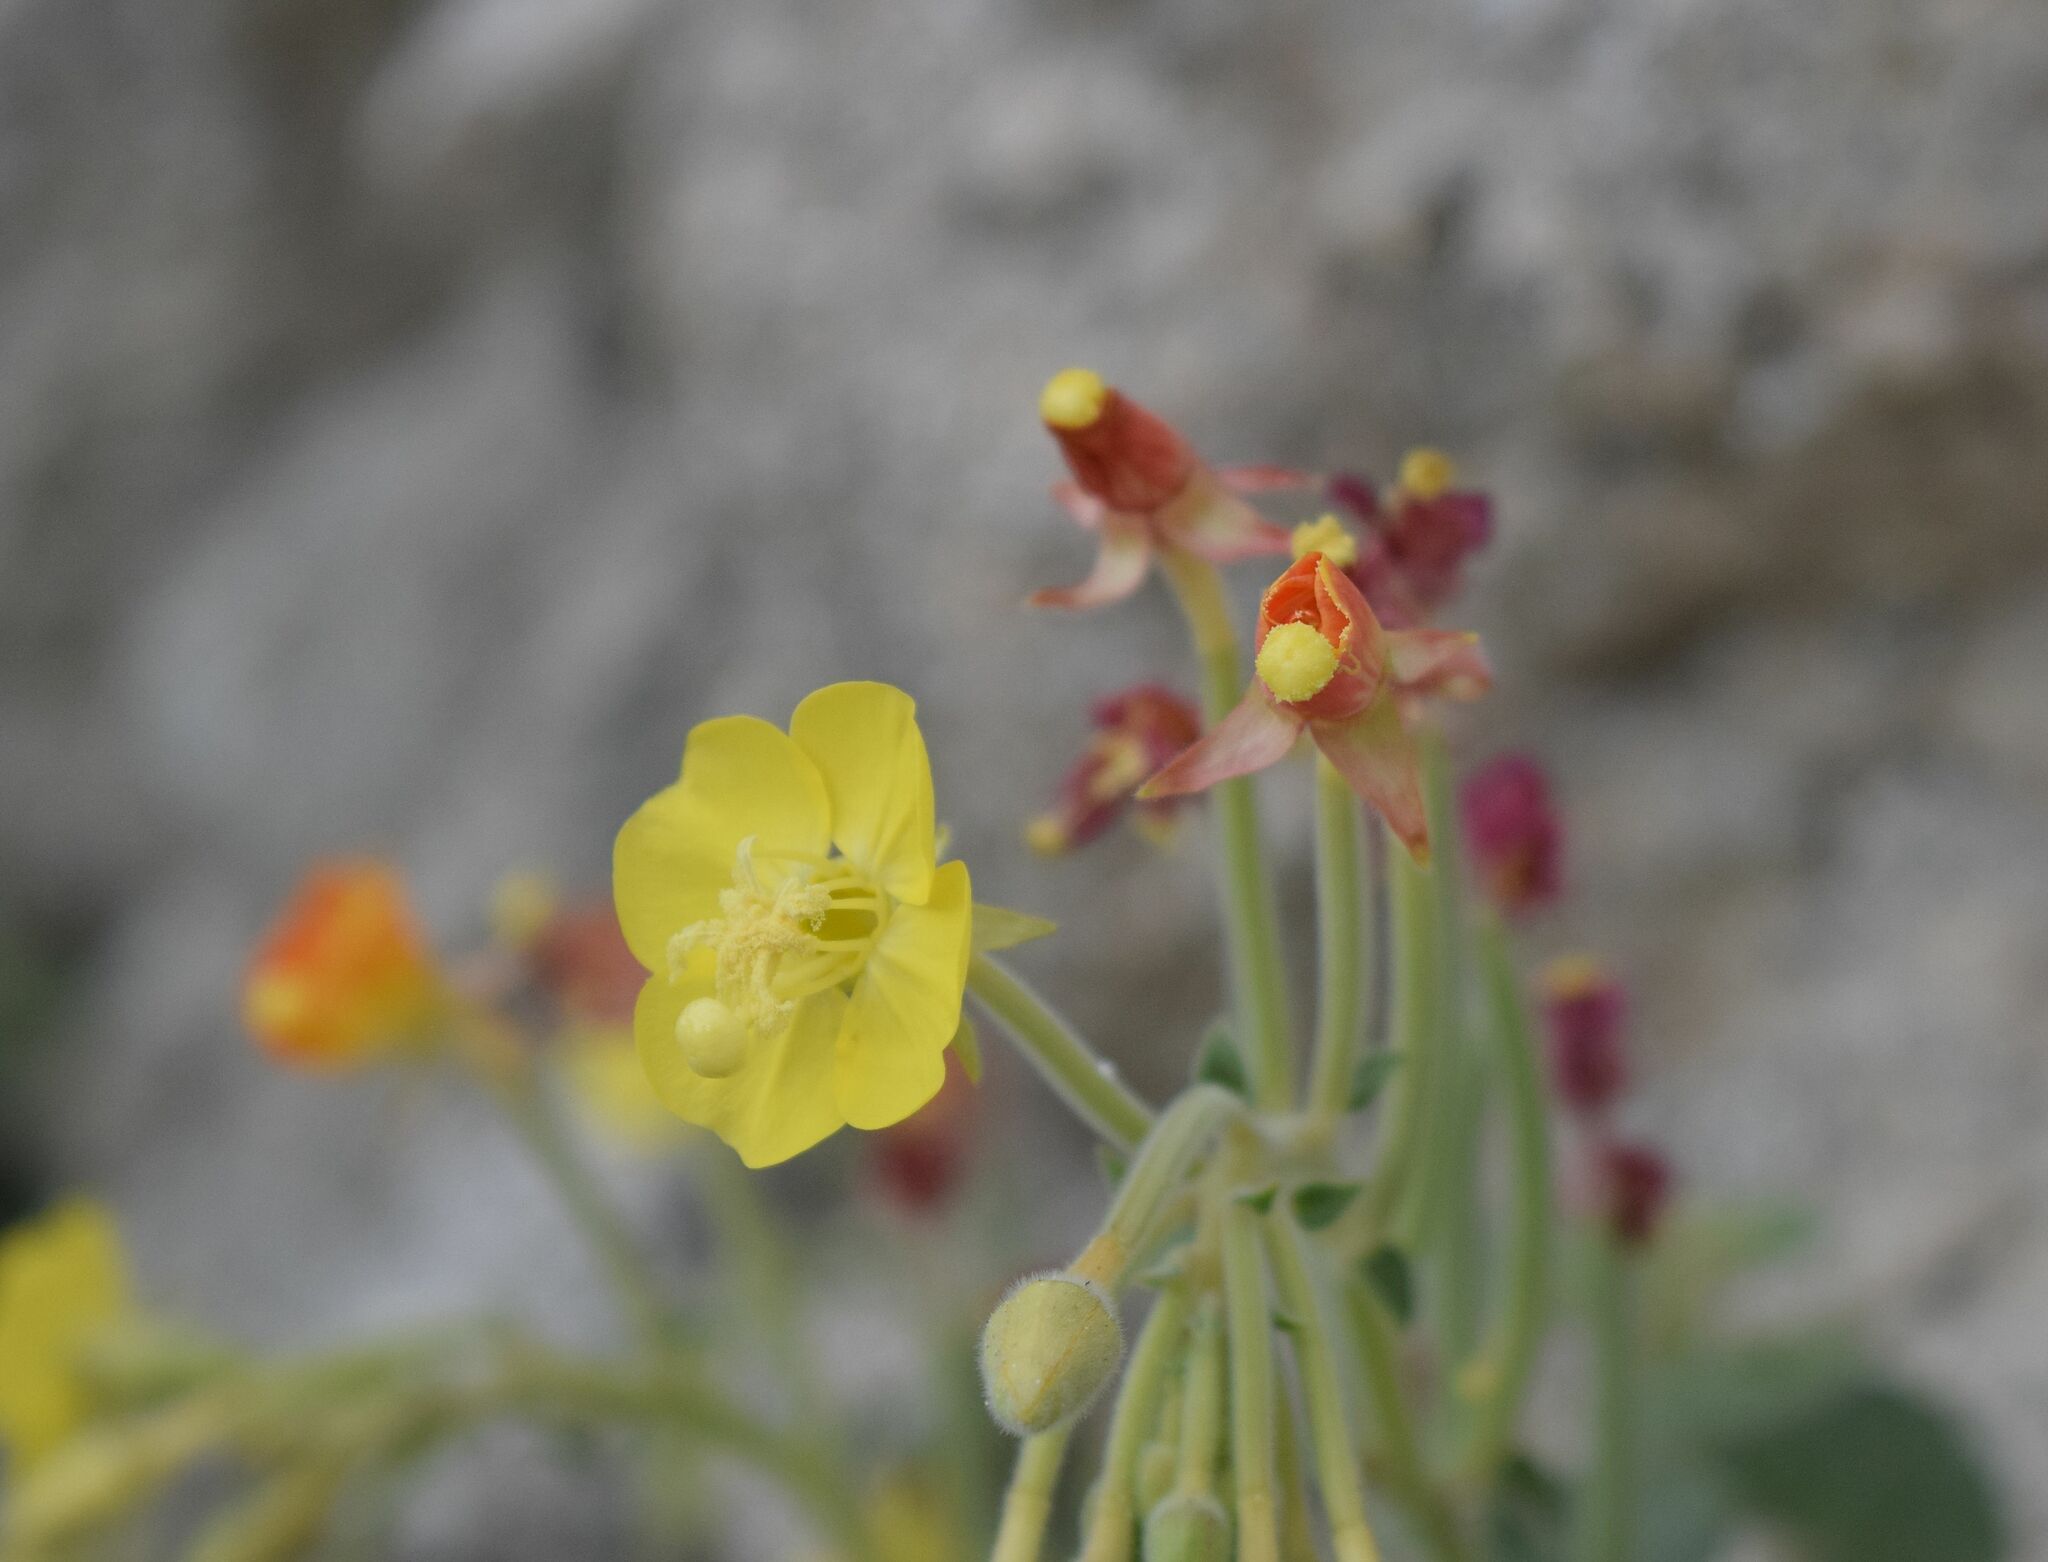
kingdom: Plantae
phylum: Tracheophyta
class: Magnoliopsida
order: Myrtales
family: Onagraceae
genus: Chylismia
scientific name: Chylismia cardiophylla
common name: Heartleaf suncup
